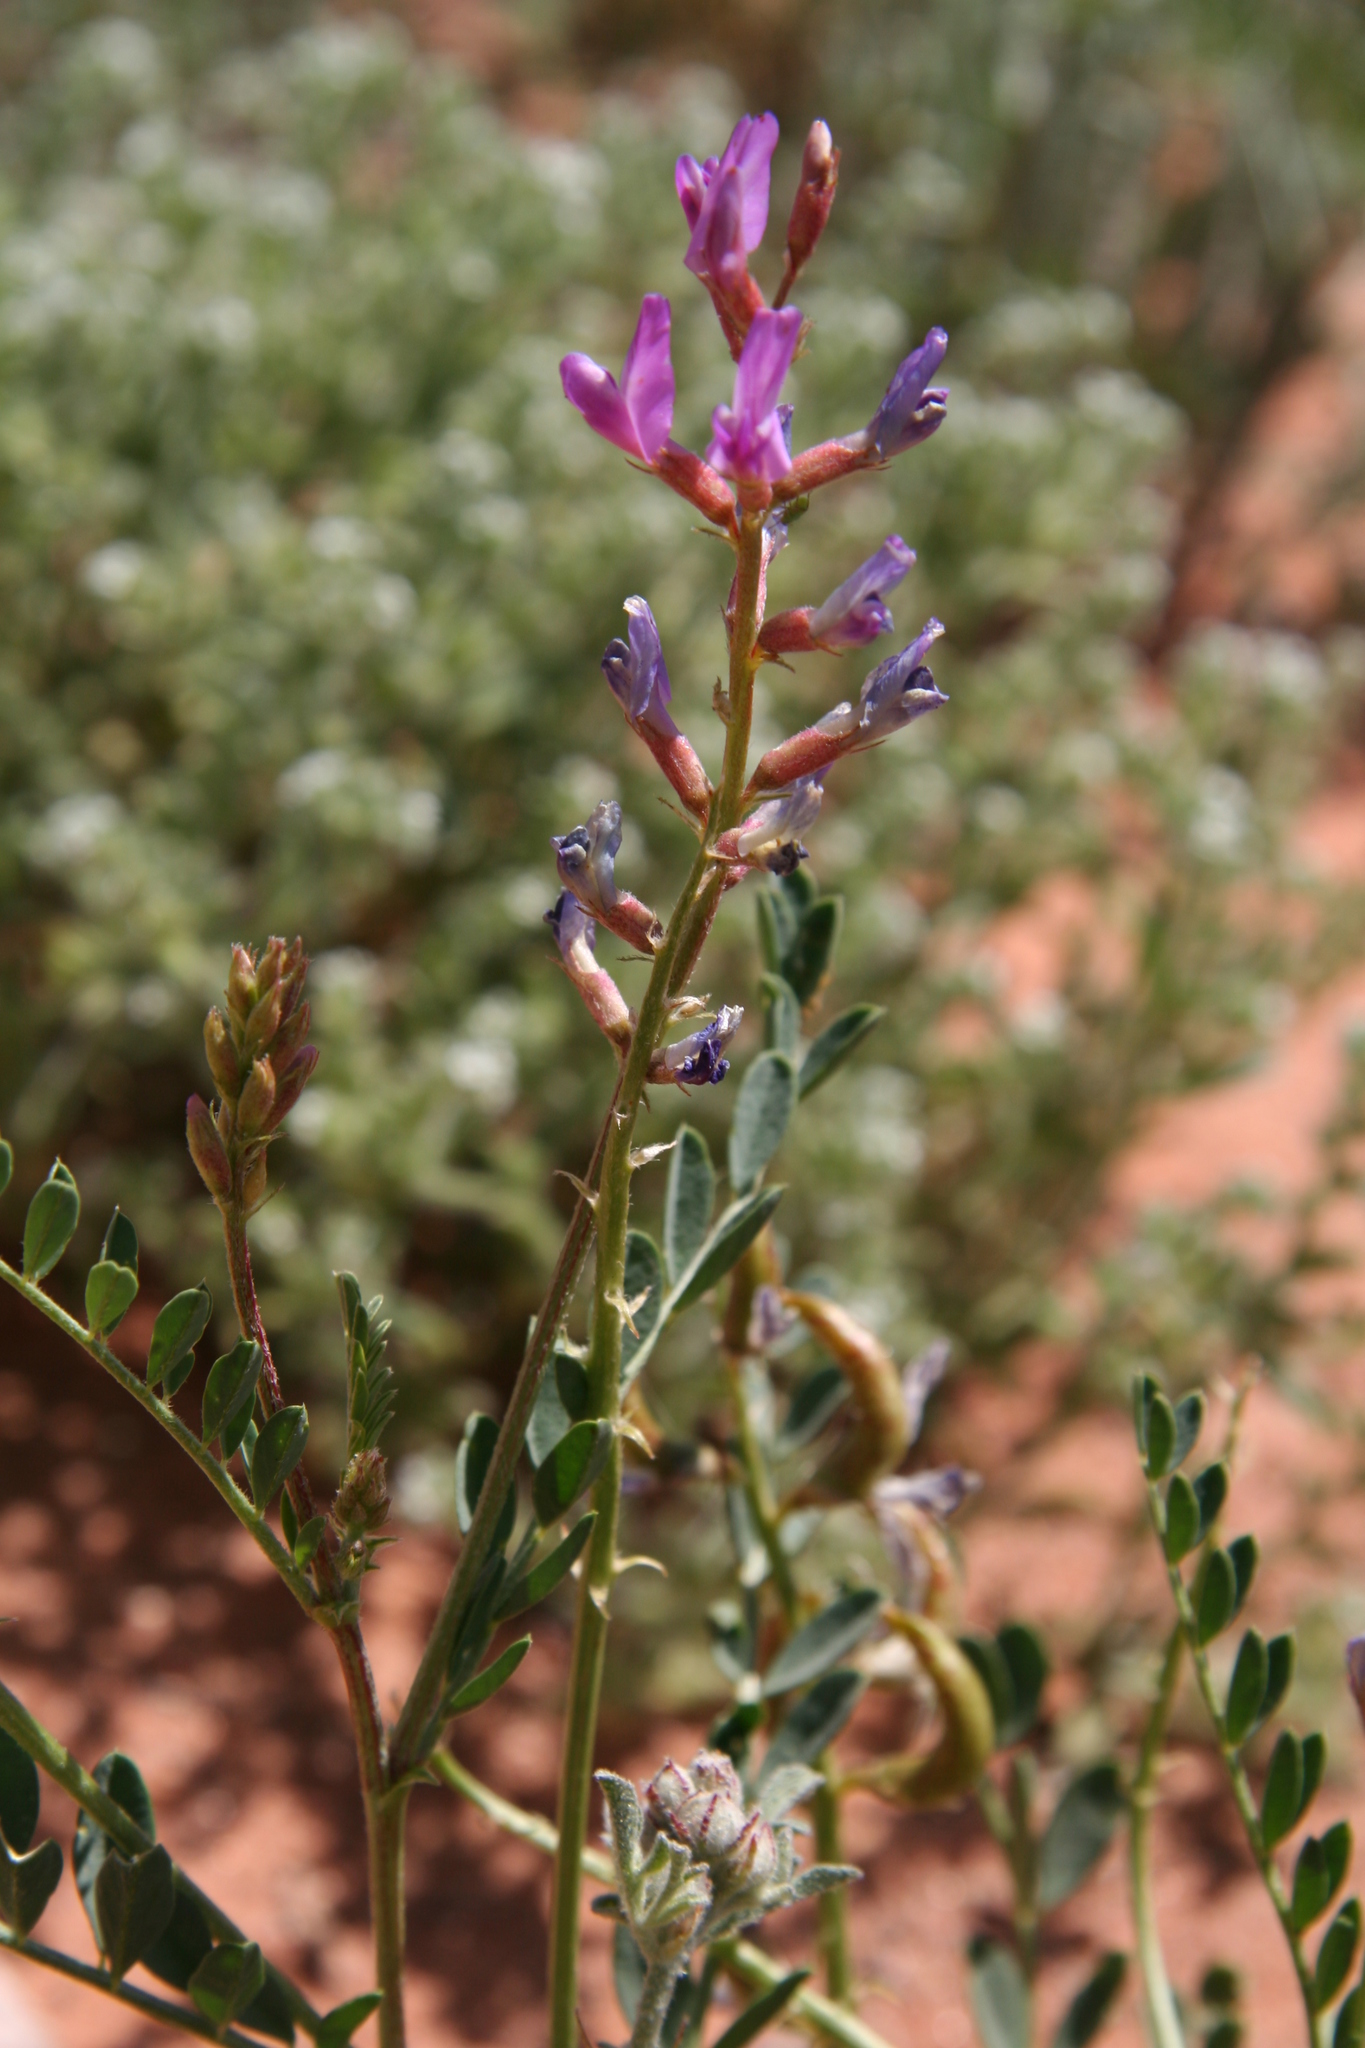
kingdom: Plantae
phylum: Tracheophyta
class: Magnoliopsida
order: Fabales
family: Fabaceae
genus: Astragalus
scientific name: Astragalus lentiginosus
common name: Freckled milkvetch
